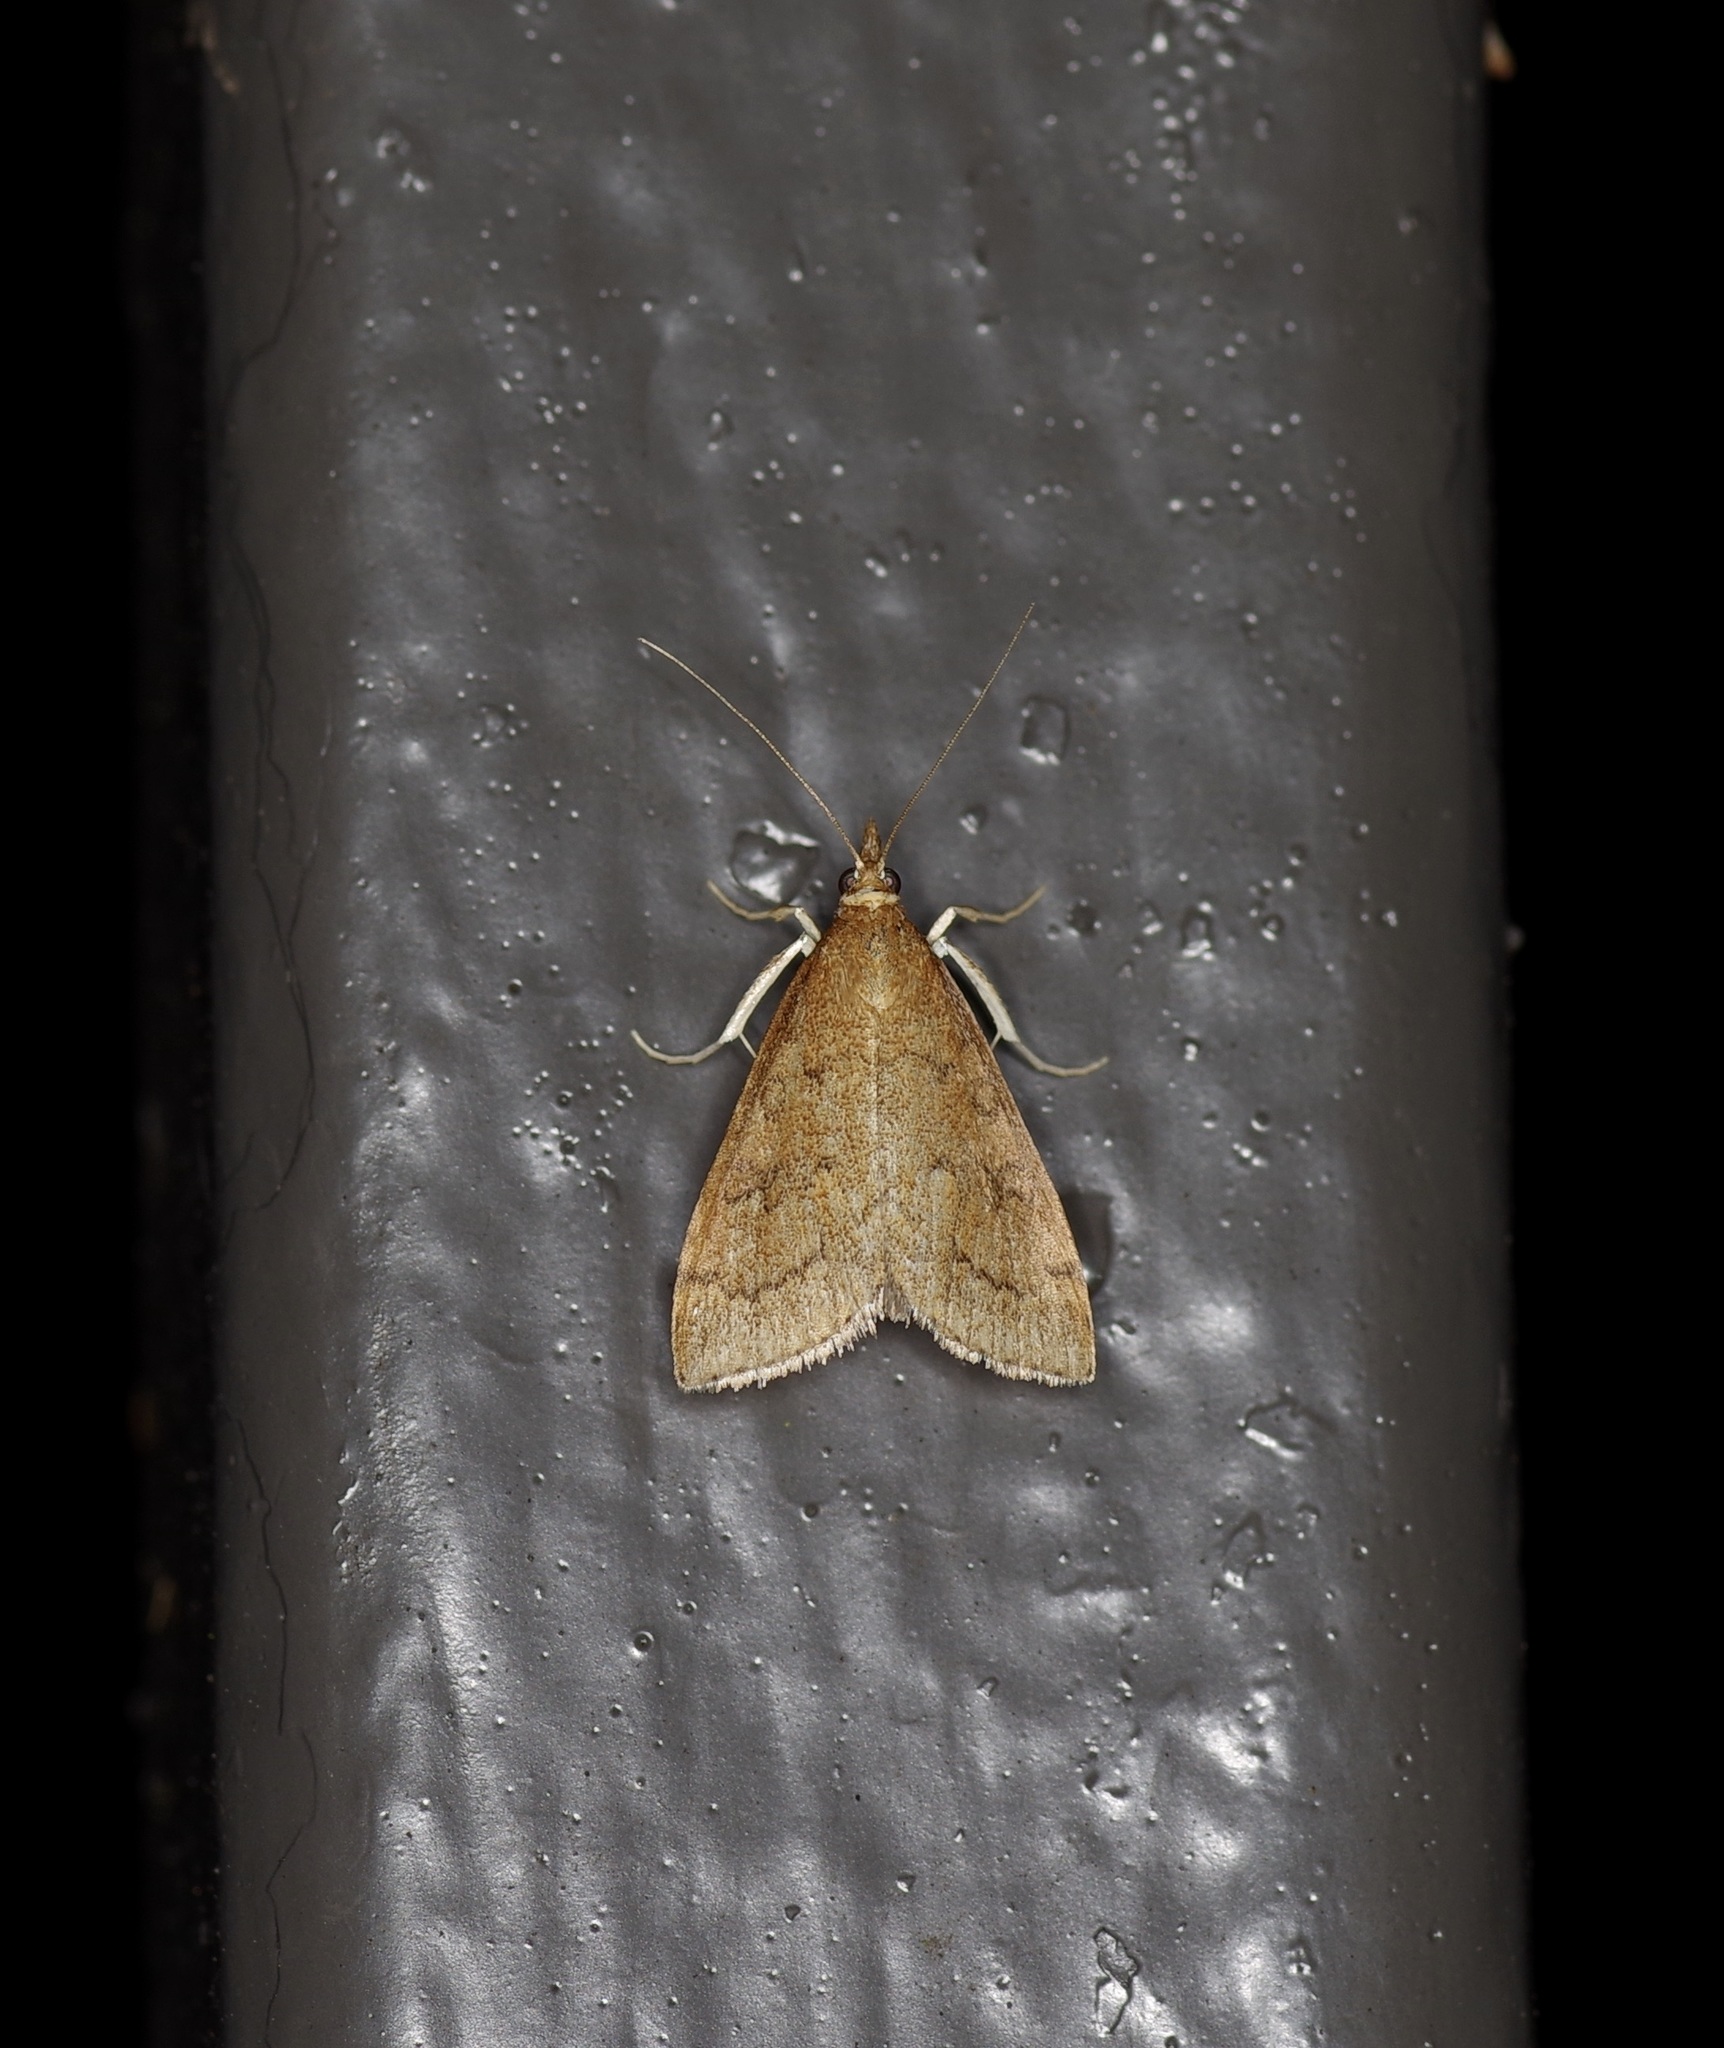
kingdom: Animalia
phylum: Arthropoda
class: Insecta
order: Lepidoptera
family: Crambidae
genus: Udea
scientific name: Udea rubigalis
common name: Celery leaftier moth
